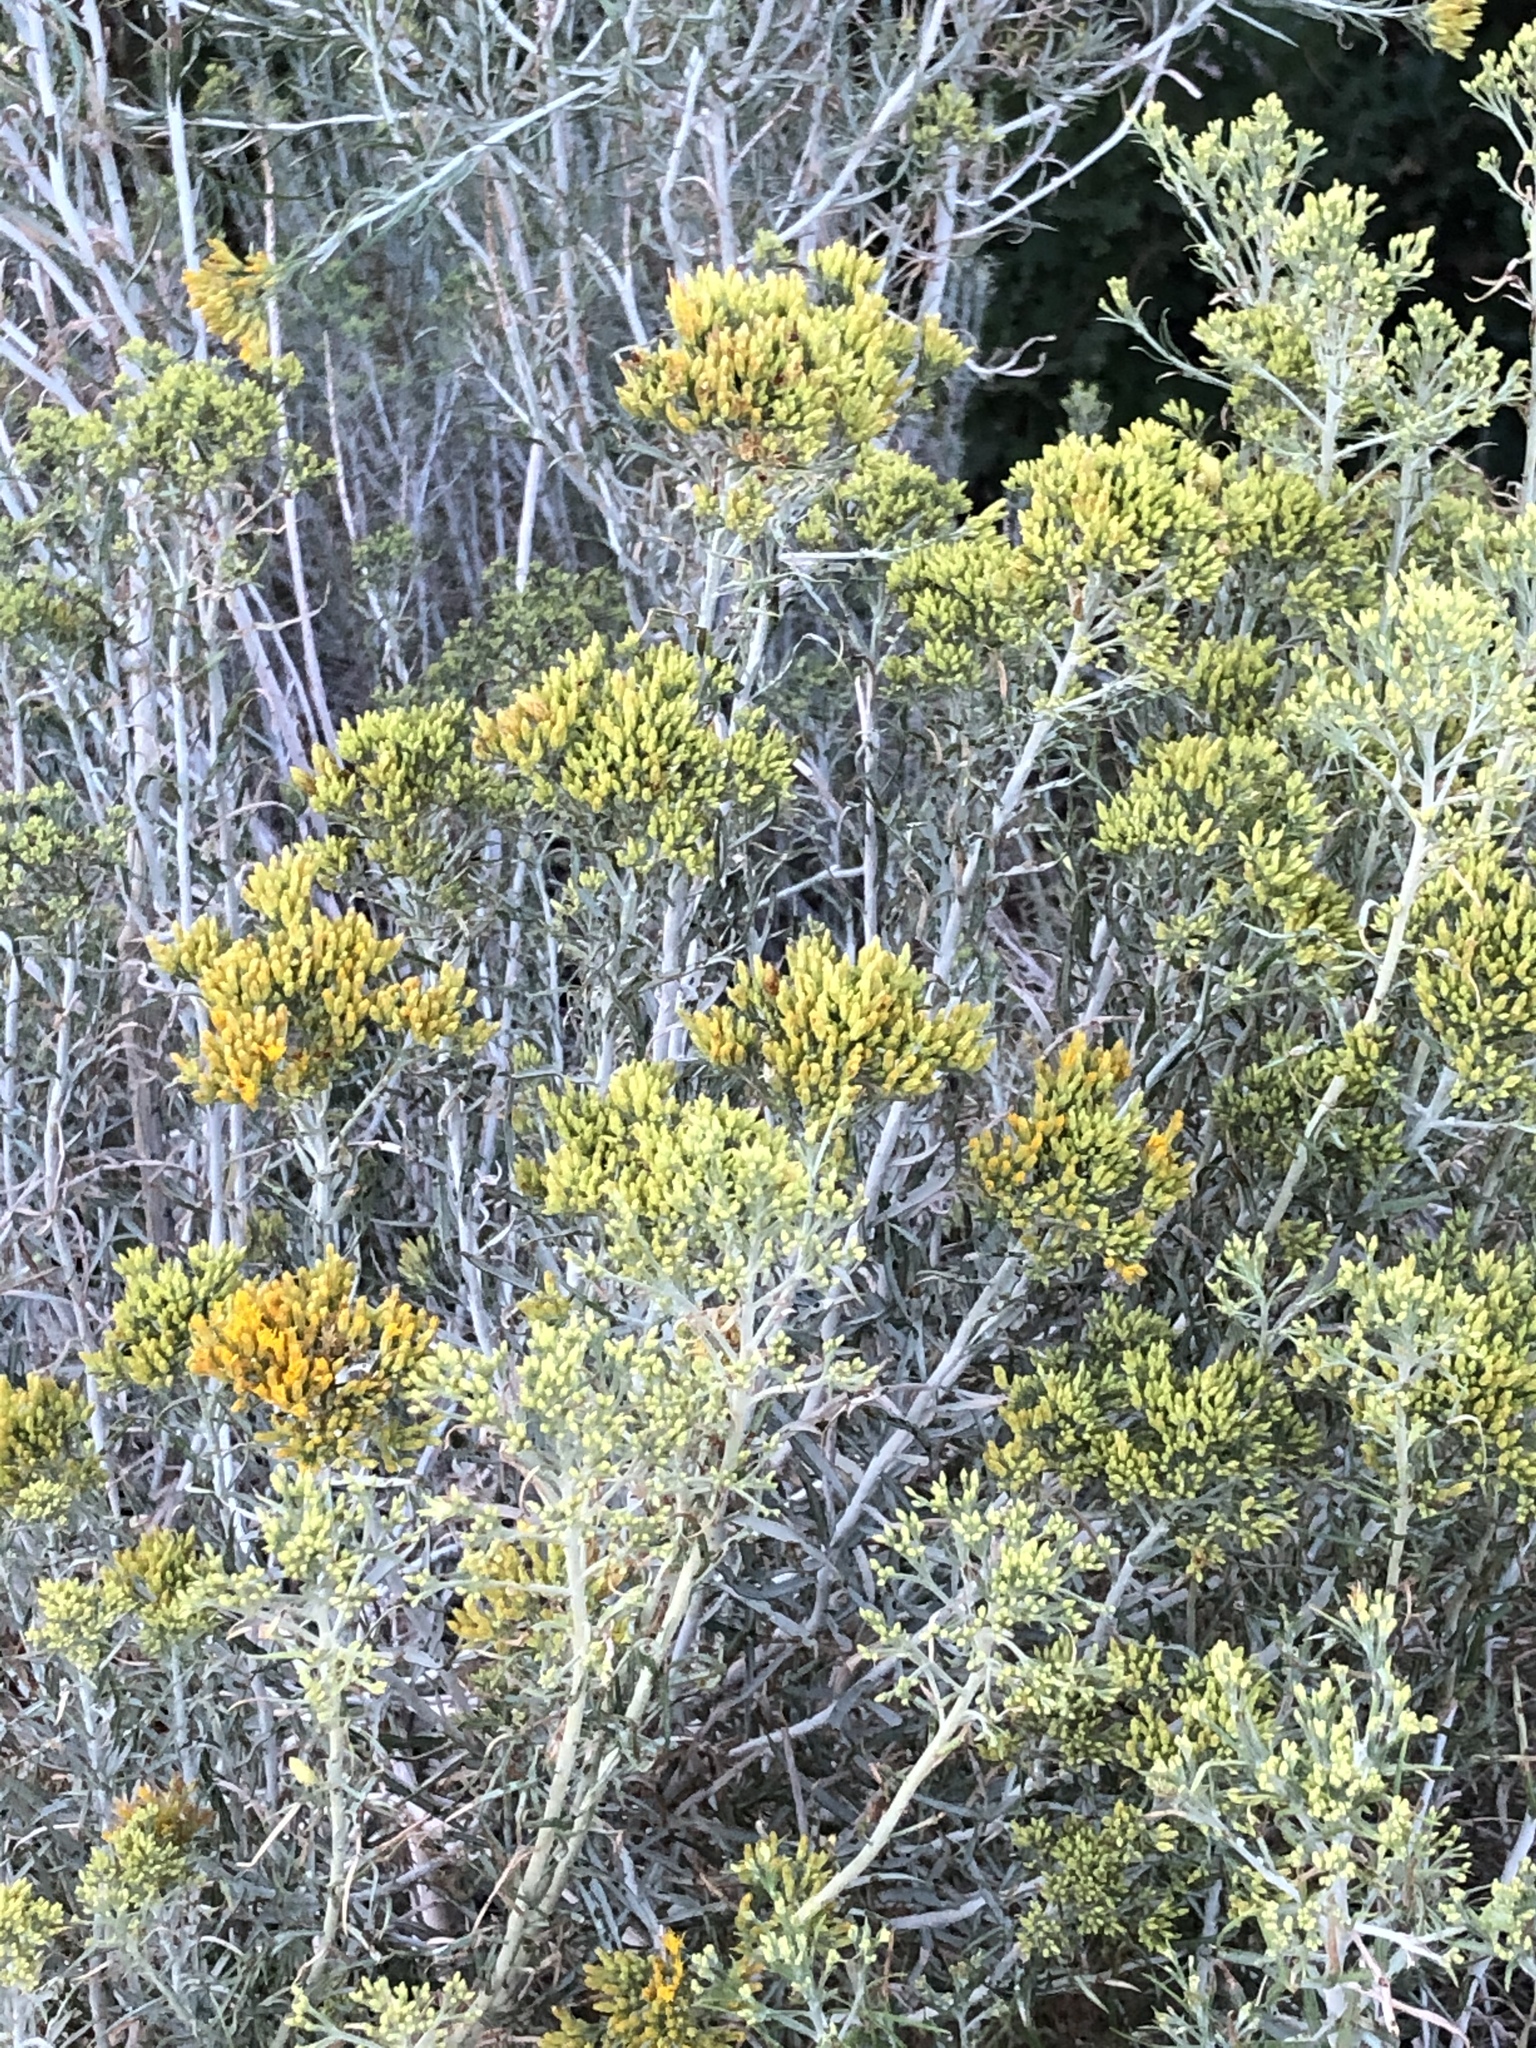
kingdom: Plantae
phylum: Tracheophyta
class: Magnoliopsida
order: Asterales
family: Asteraceae
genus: Ericameria
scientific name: Ericameria nauseosa
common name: Rubber rabbitbrush
